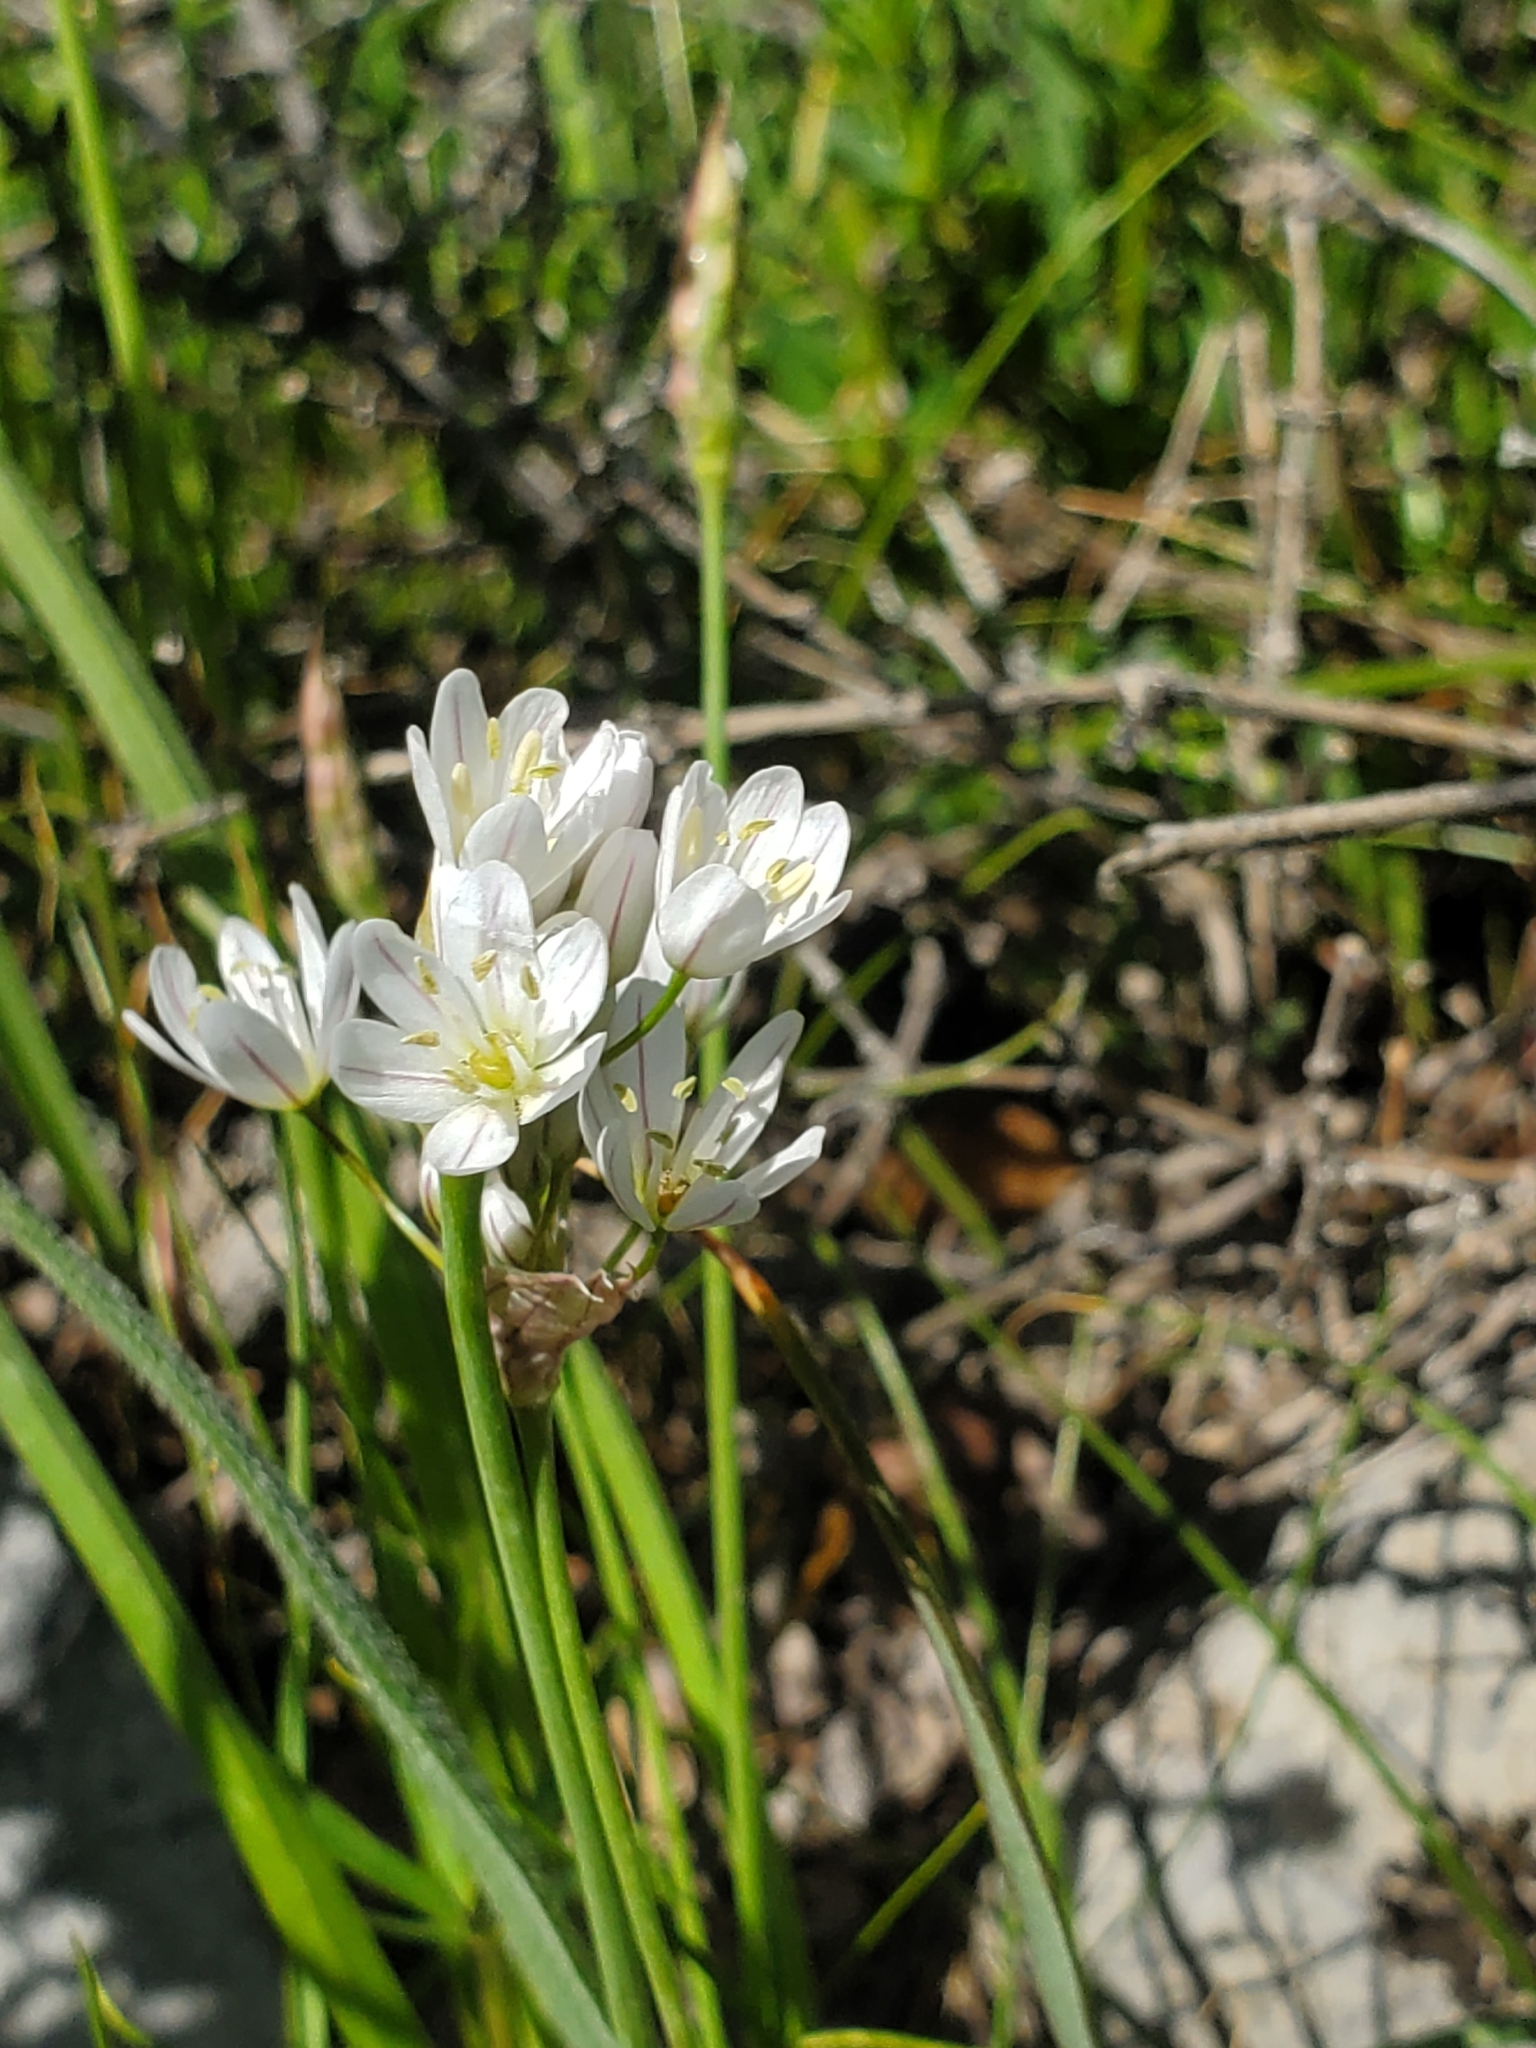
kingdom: Plantae
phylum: Tracheophyta
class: Liliopsida
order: Asparagales
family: Amaryllidaceae
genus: Allium
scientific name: Allium trifoliatum
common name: Pink garlic
